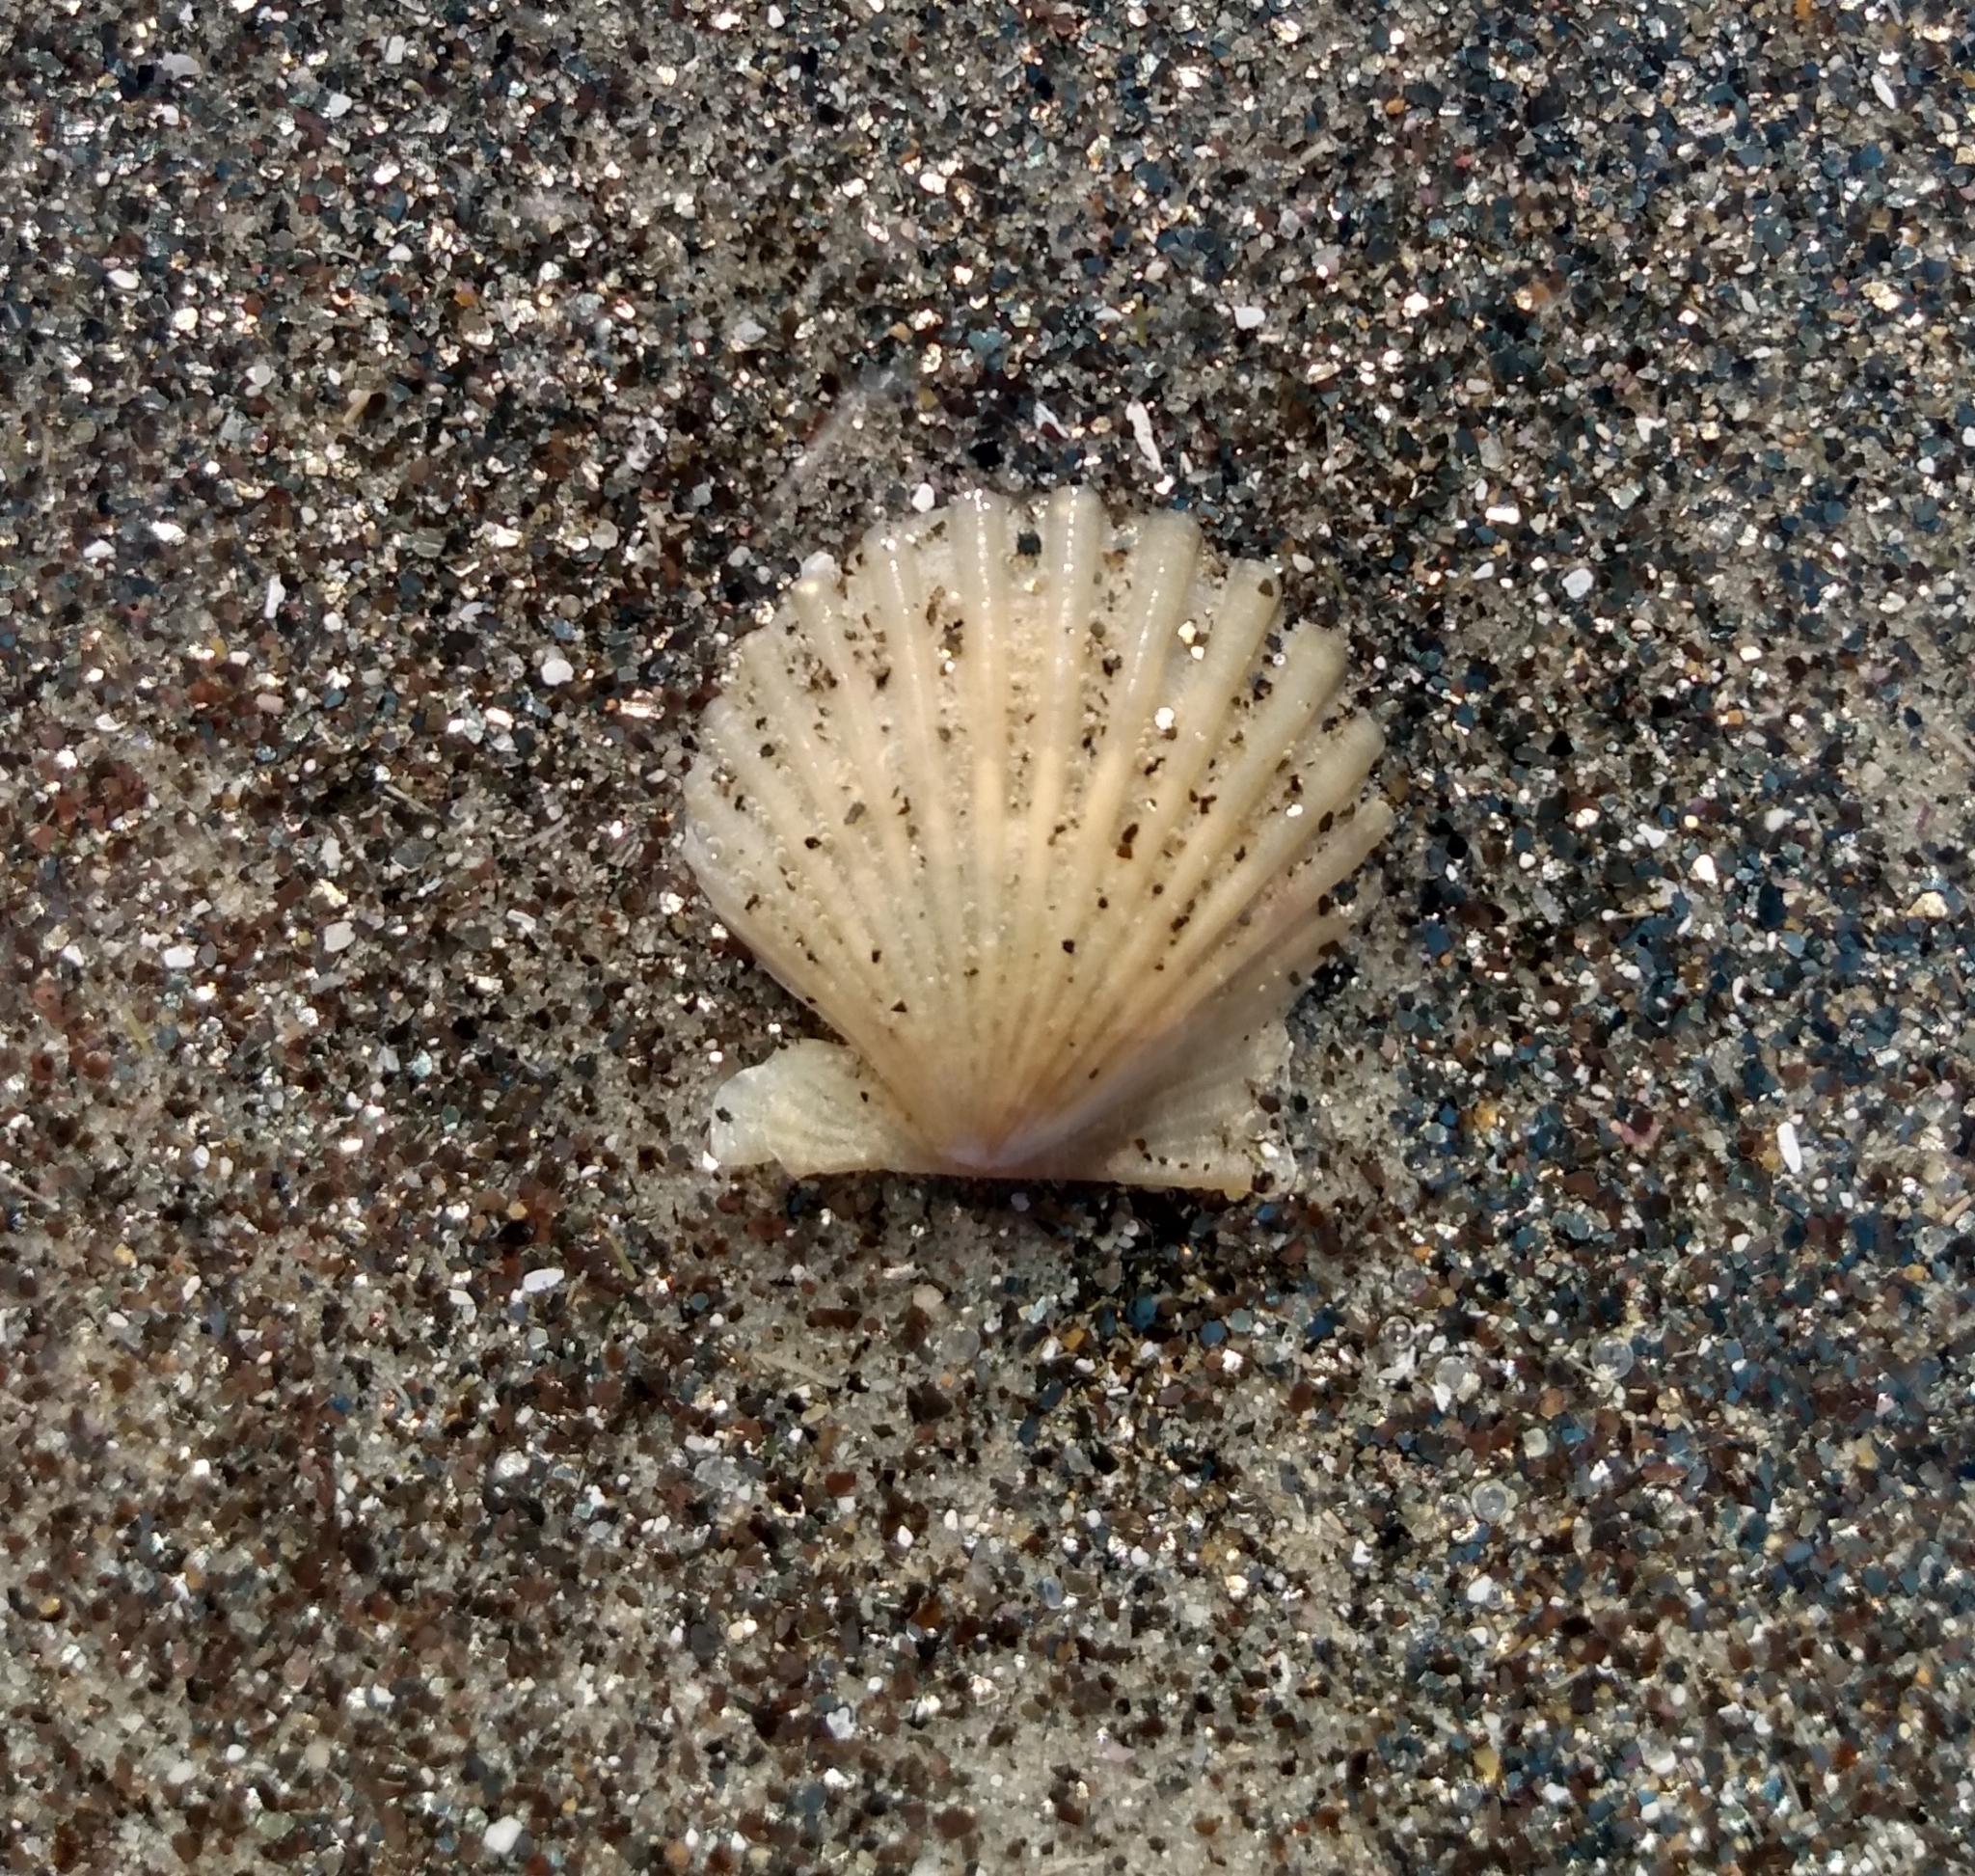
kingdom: Animalia
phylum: Mollusca
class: Bivalvia
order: Pectinida
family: Pectinidae
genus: Argopecten
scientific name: Argopecten ventricosus
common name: Catarina scallop
